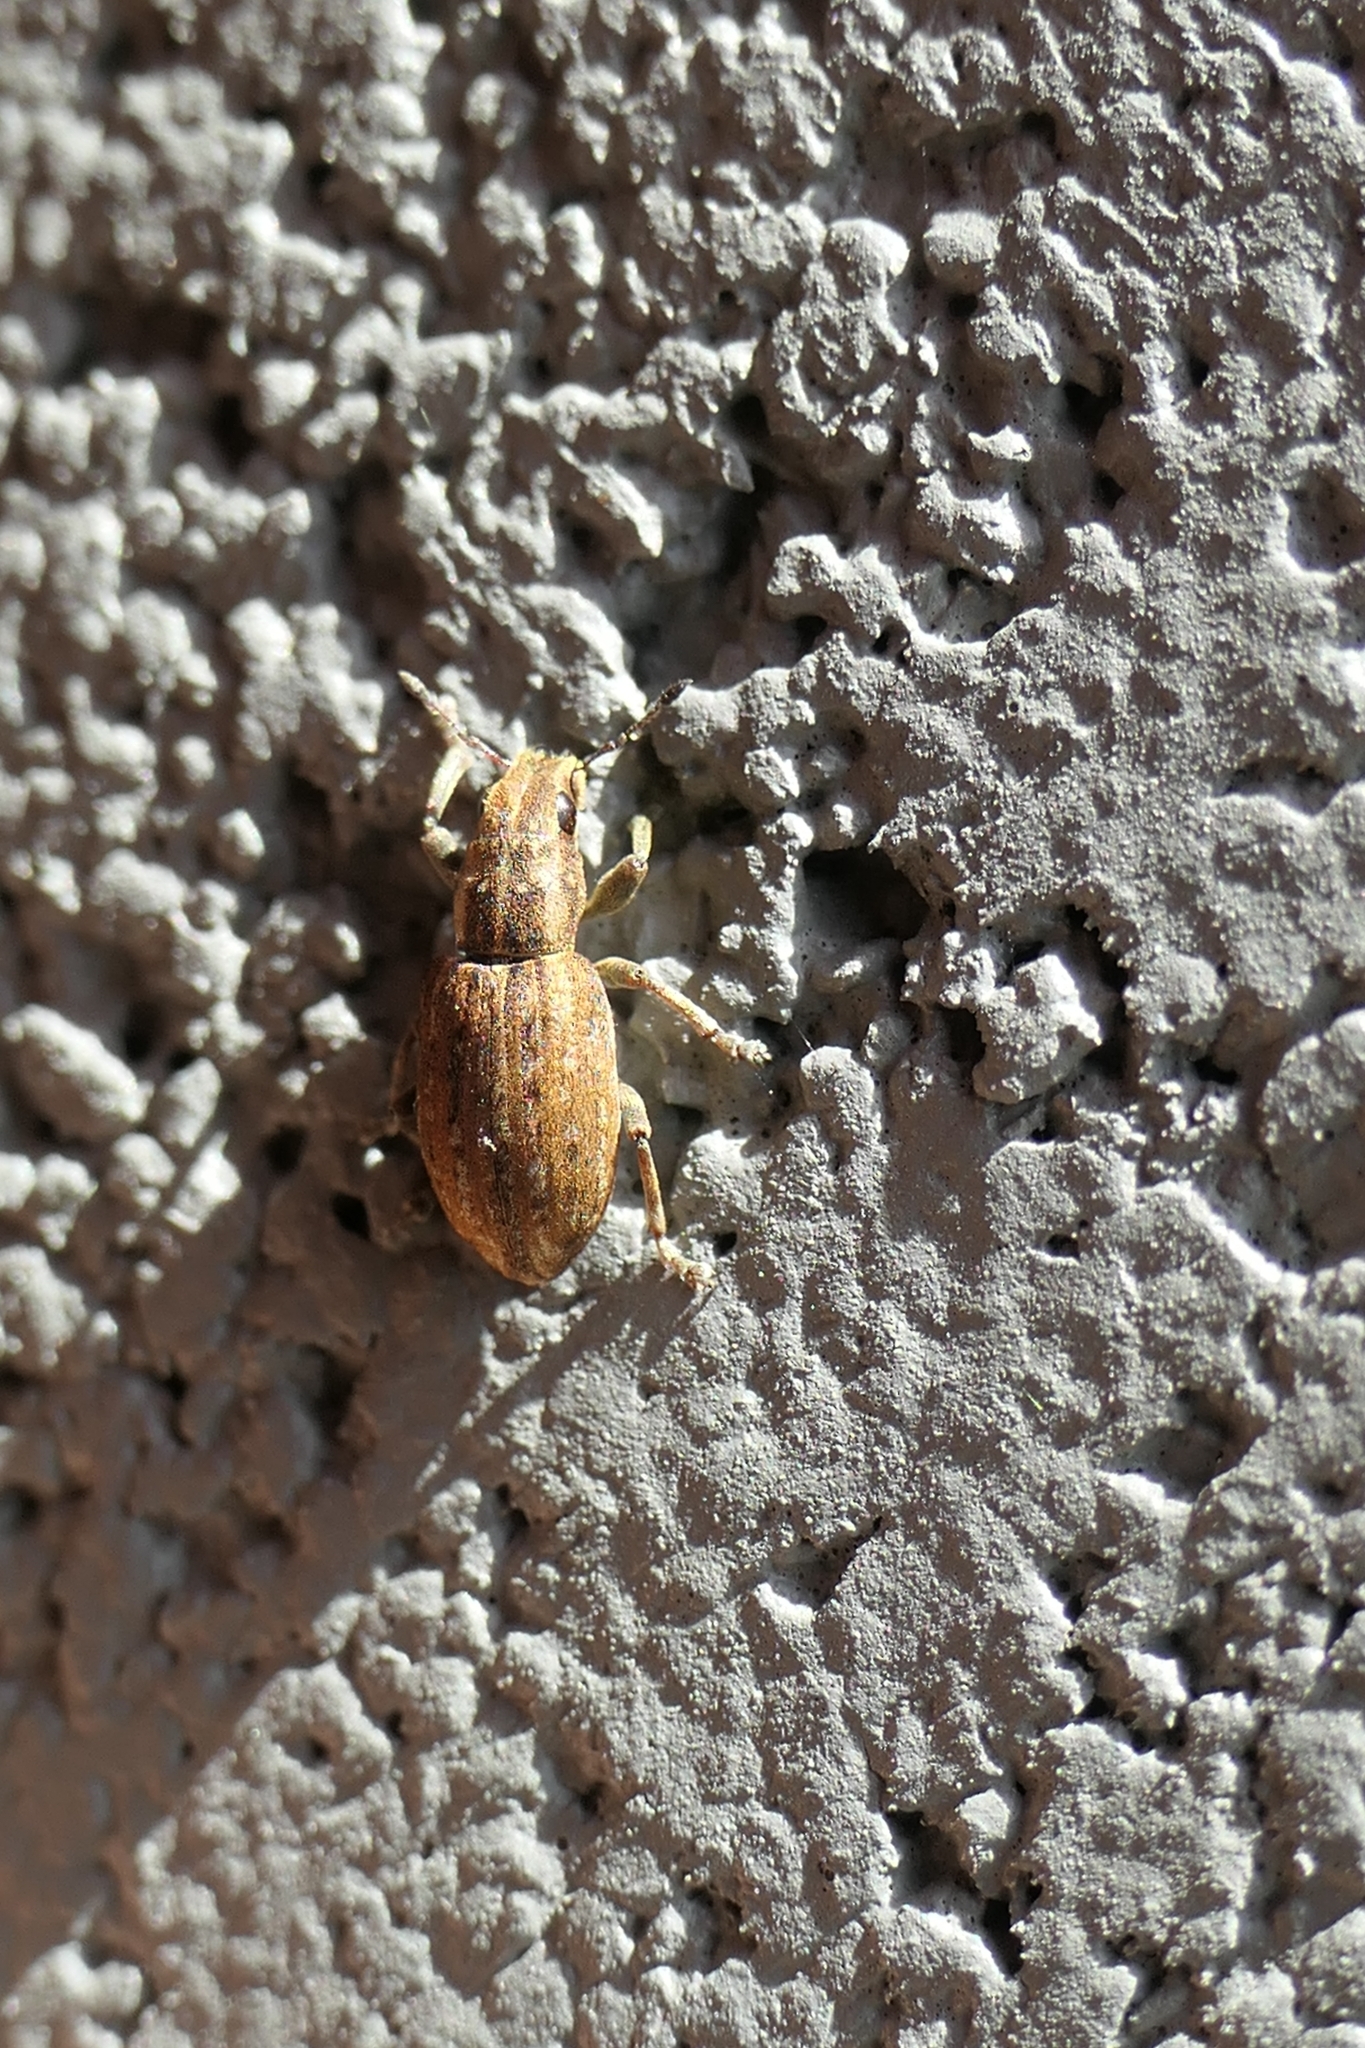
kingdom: Animalia
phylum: Arthropoda
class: Insecta
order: Coleoptera
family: Curculionidae
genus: Sitona
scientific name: Sitona obsoletus
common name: Weevil
